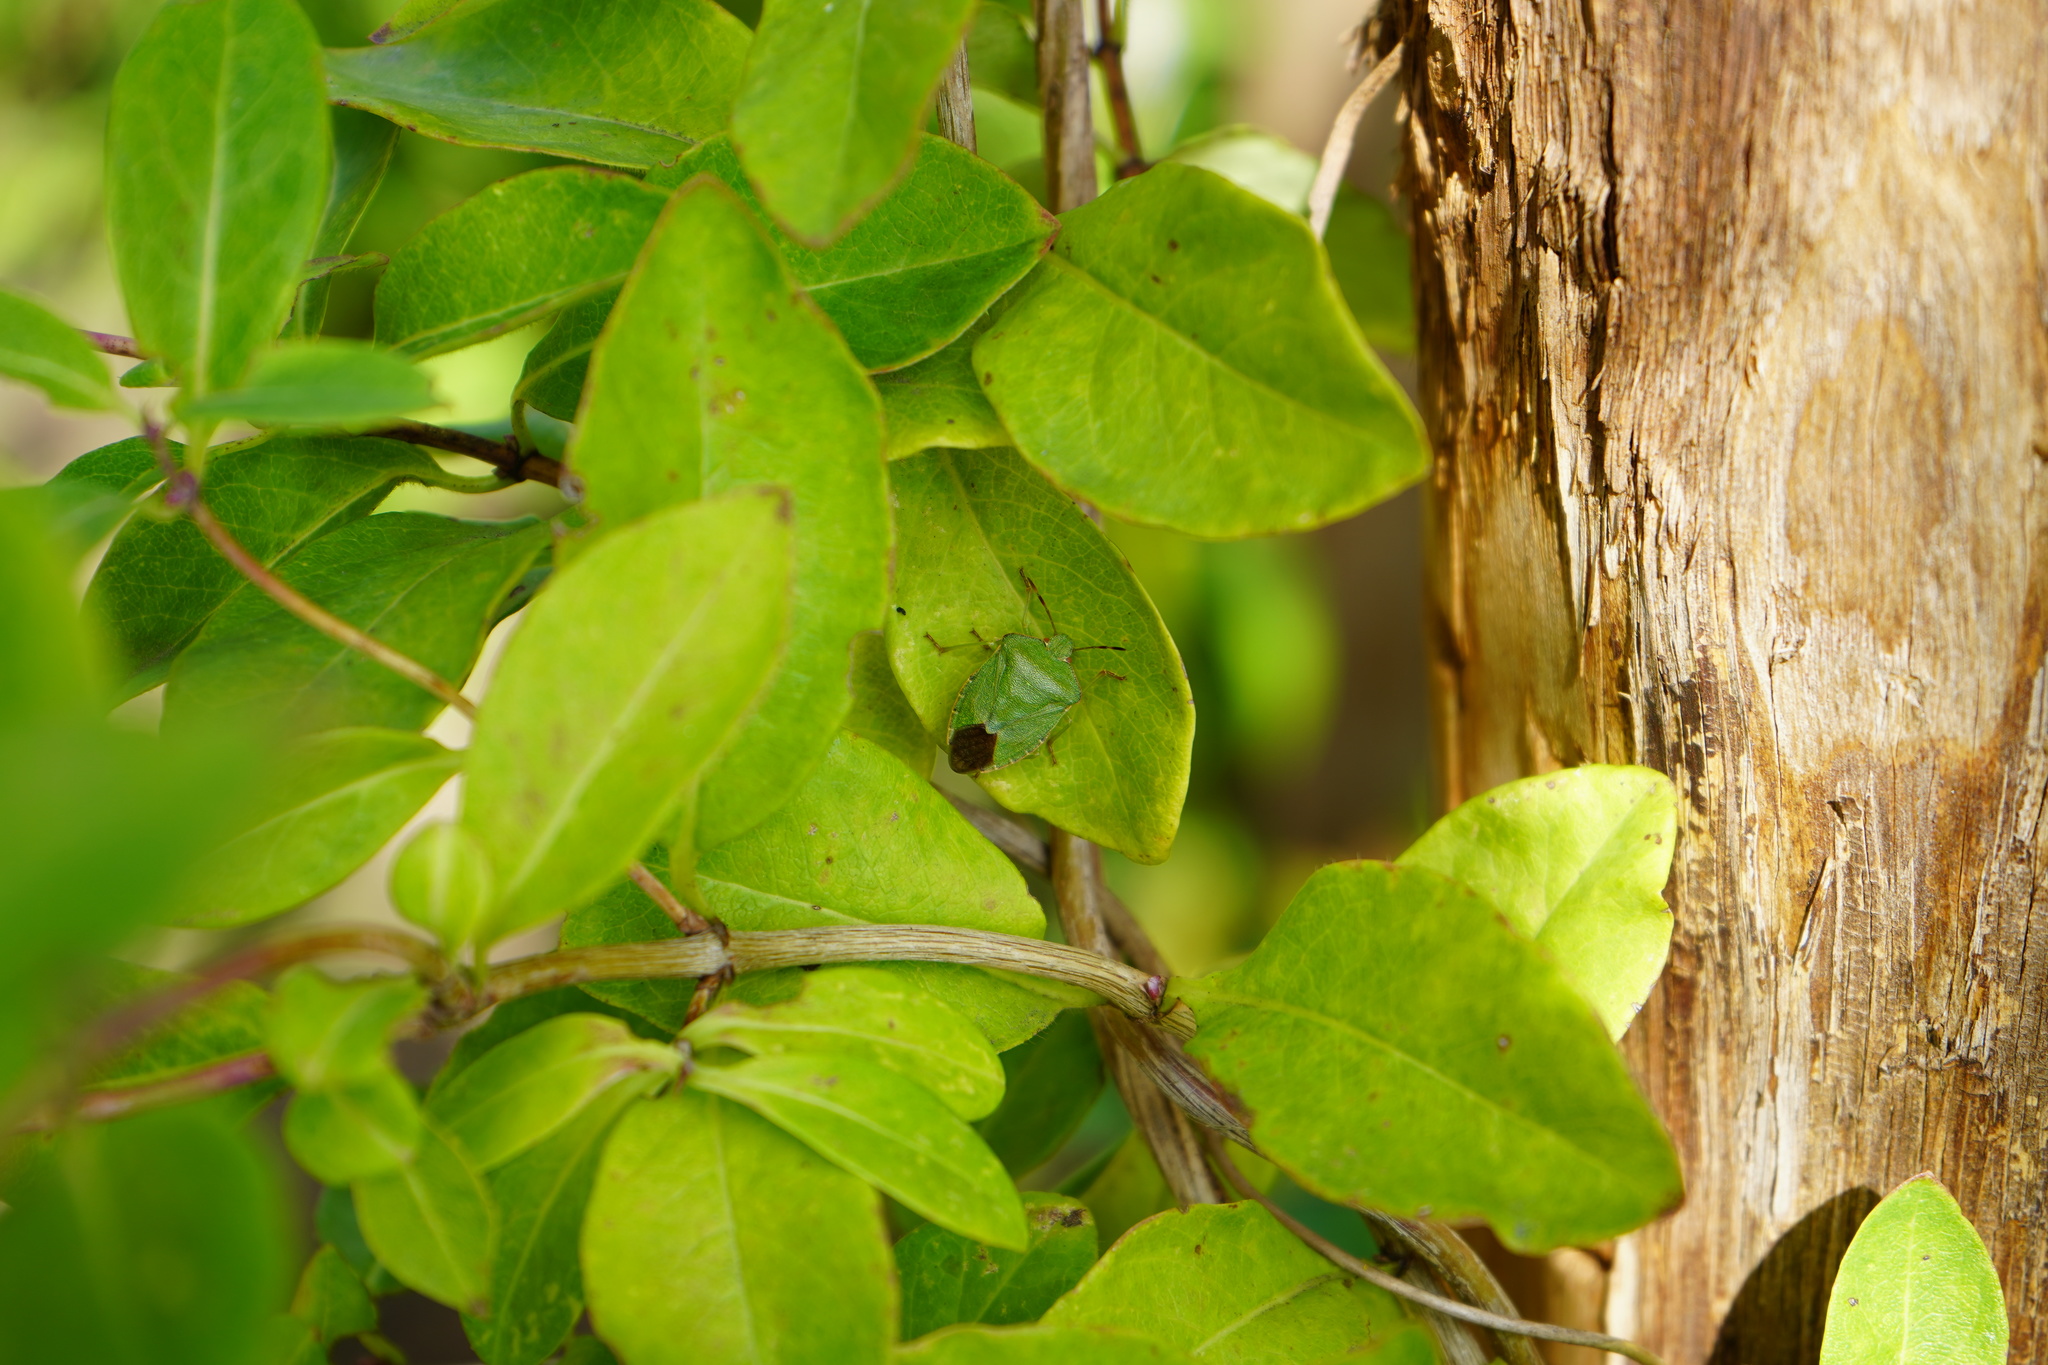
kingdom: Animalia
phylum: Arthropoda
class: Insecta
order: Hemiptera
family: Pentatomidae
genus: Palomena
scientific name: Palomena prasina
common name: Green shieldbug
